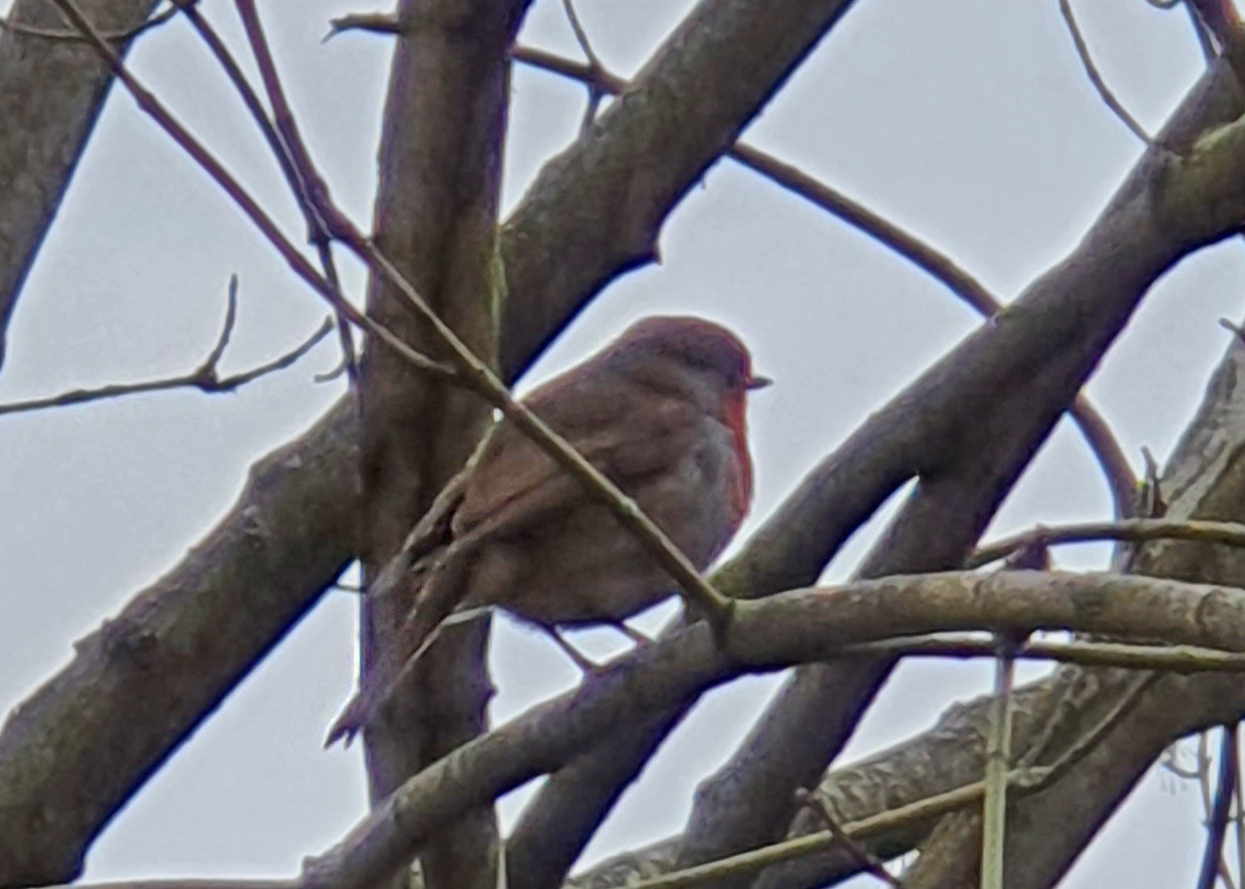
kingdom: Animalia
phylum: Chordata
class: Aves
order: Passeriformes
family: Muscicapidae
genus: Erithacus
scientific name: Erithacus rubecula
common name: European robin
